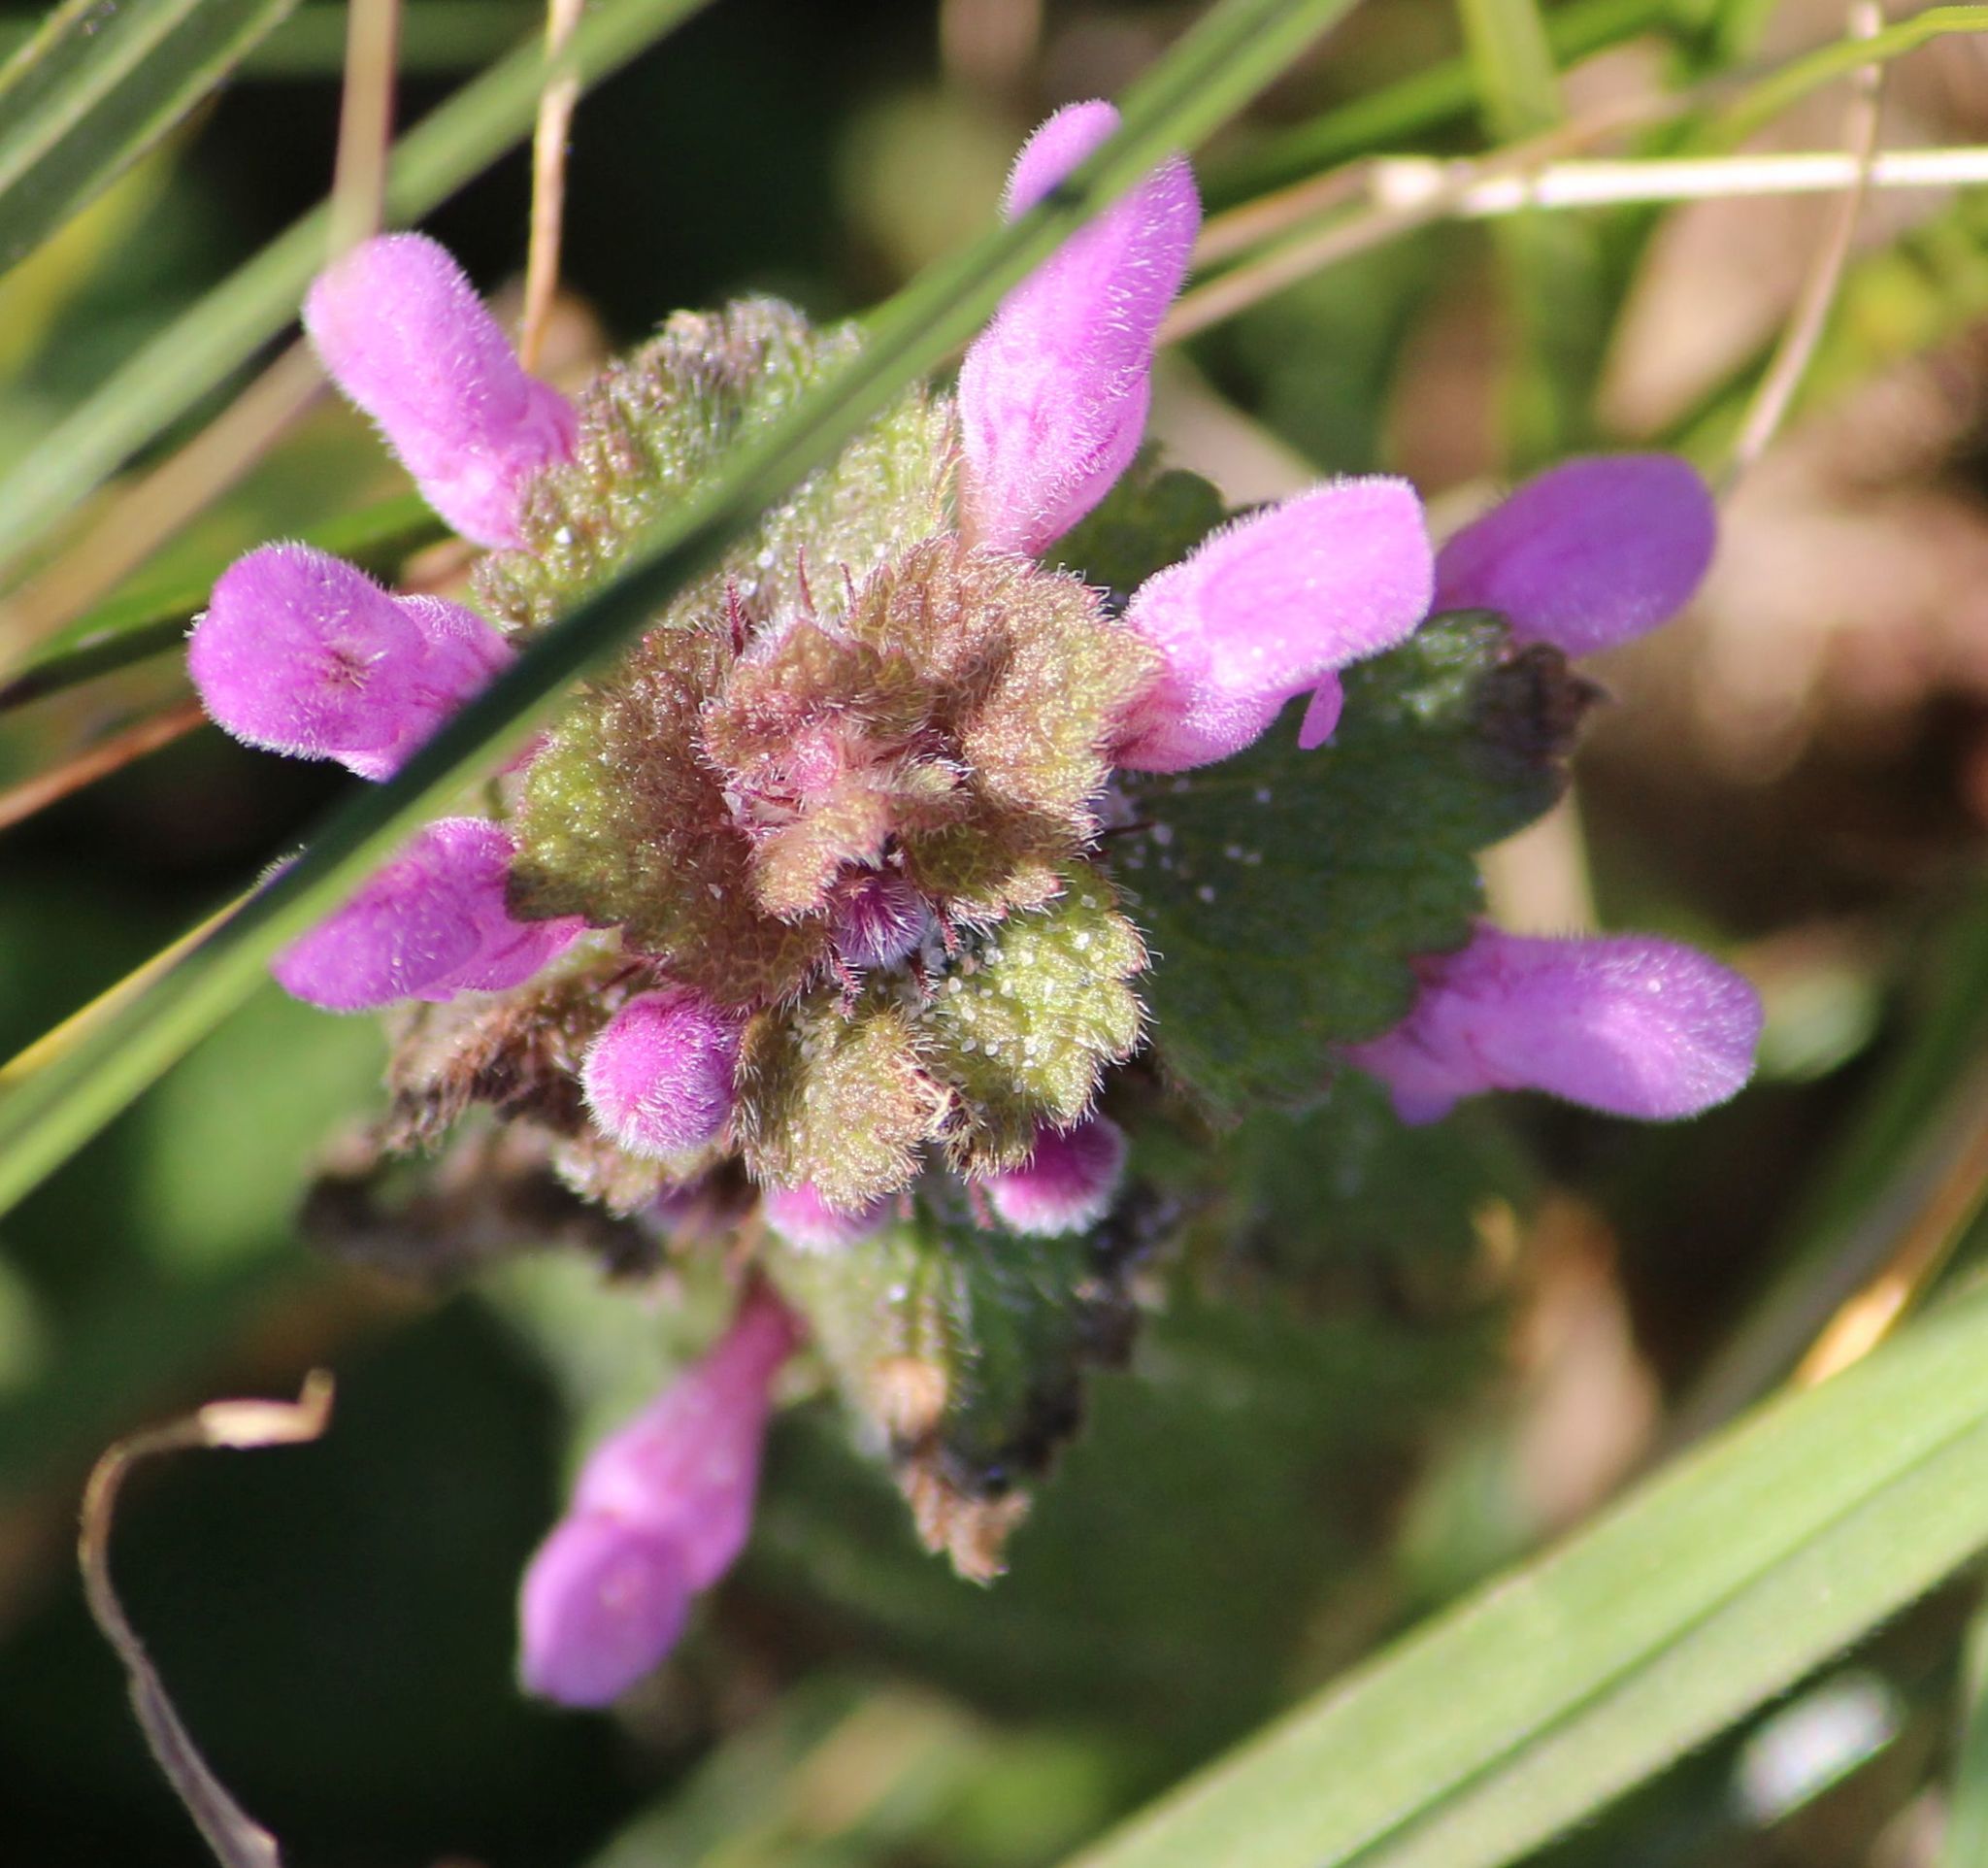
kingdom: Plantae
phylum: Tracheophyta
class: Magnoliopsida
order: Lamiales
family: Lamiaceae
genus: Lamium
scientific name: Lamium purpureum
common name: Red dead-nettle
